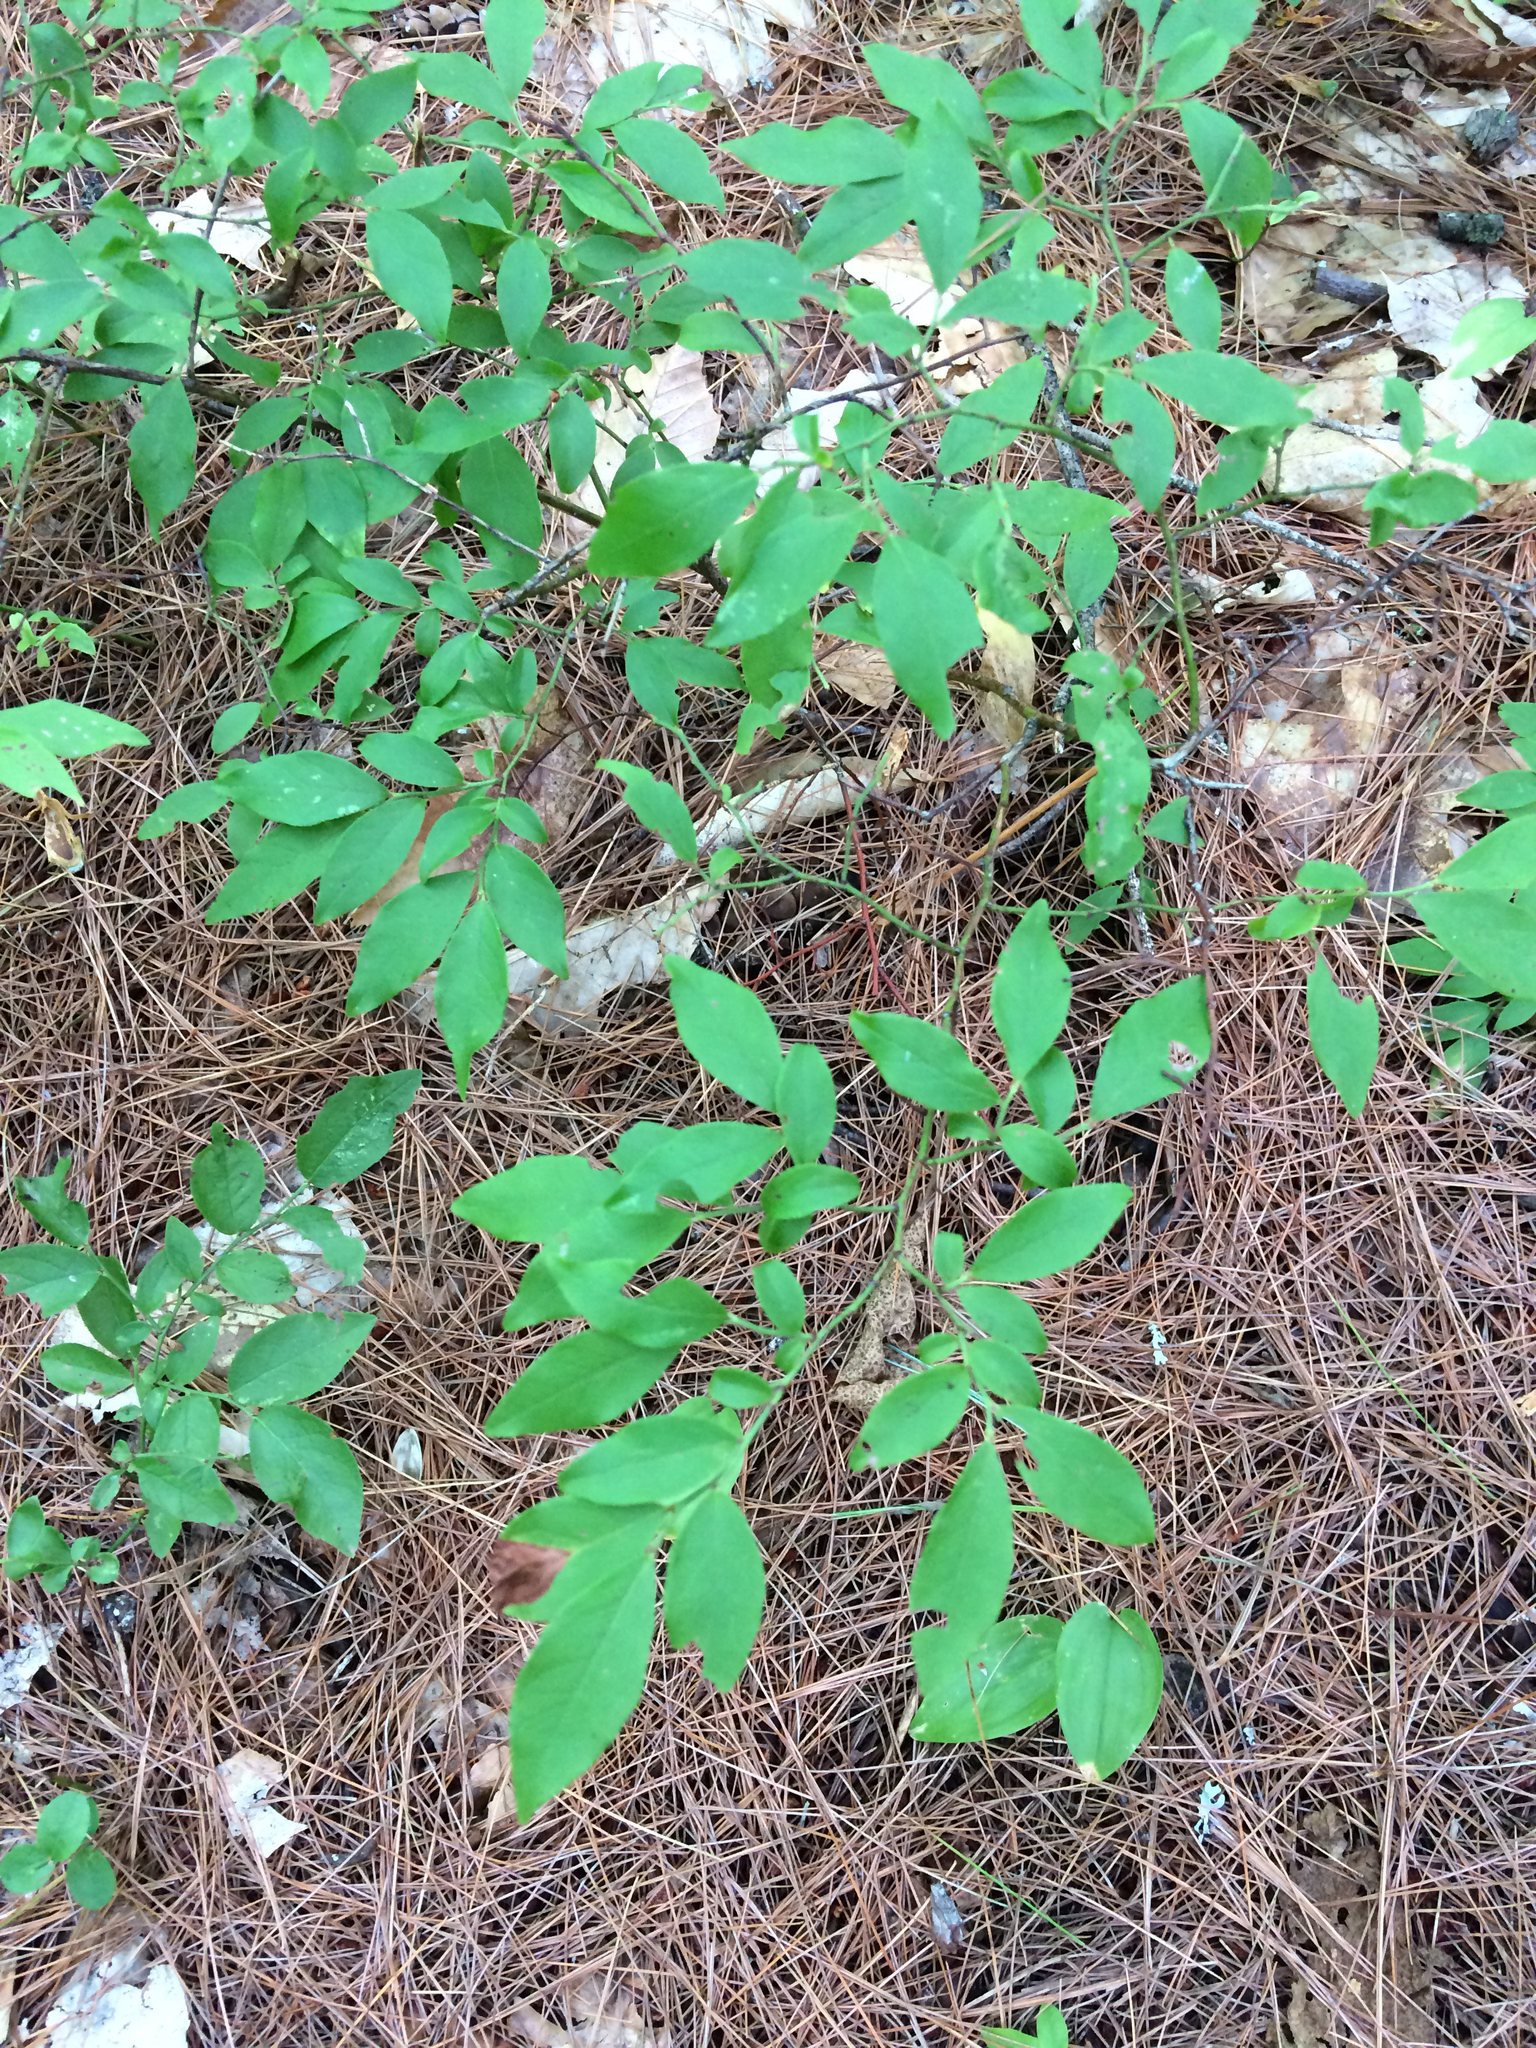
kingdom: Plantae
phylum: Tracheophyta
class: Magnoliopsida
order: Ericales
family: Ericaceae
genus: Vaccinium
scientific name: Vaccinium angustifolium
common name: Early lowbush blueberry
